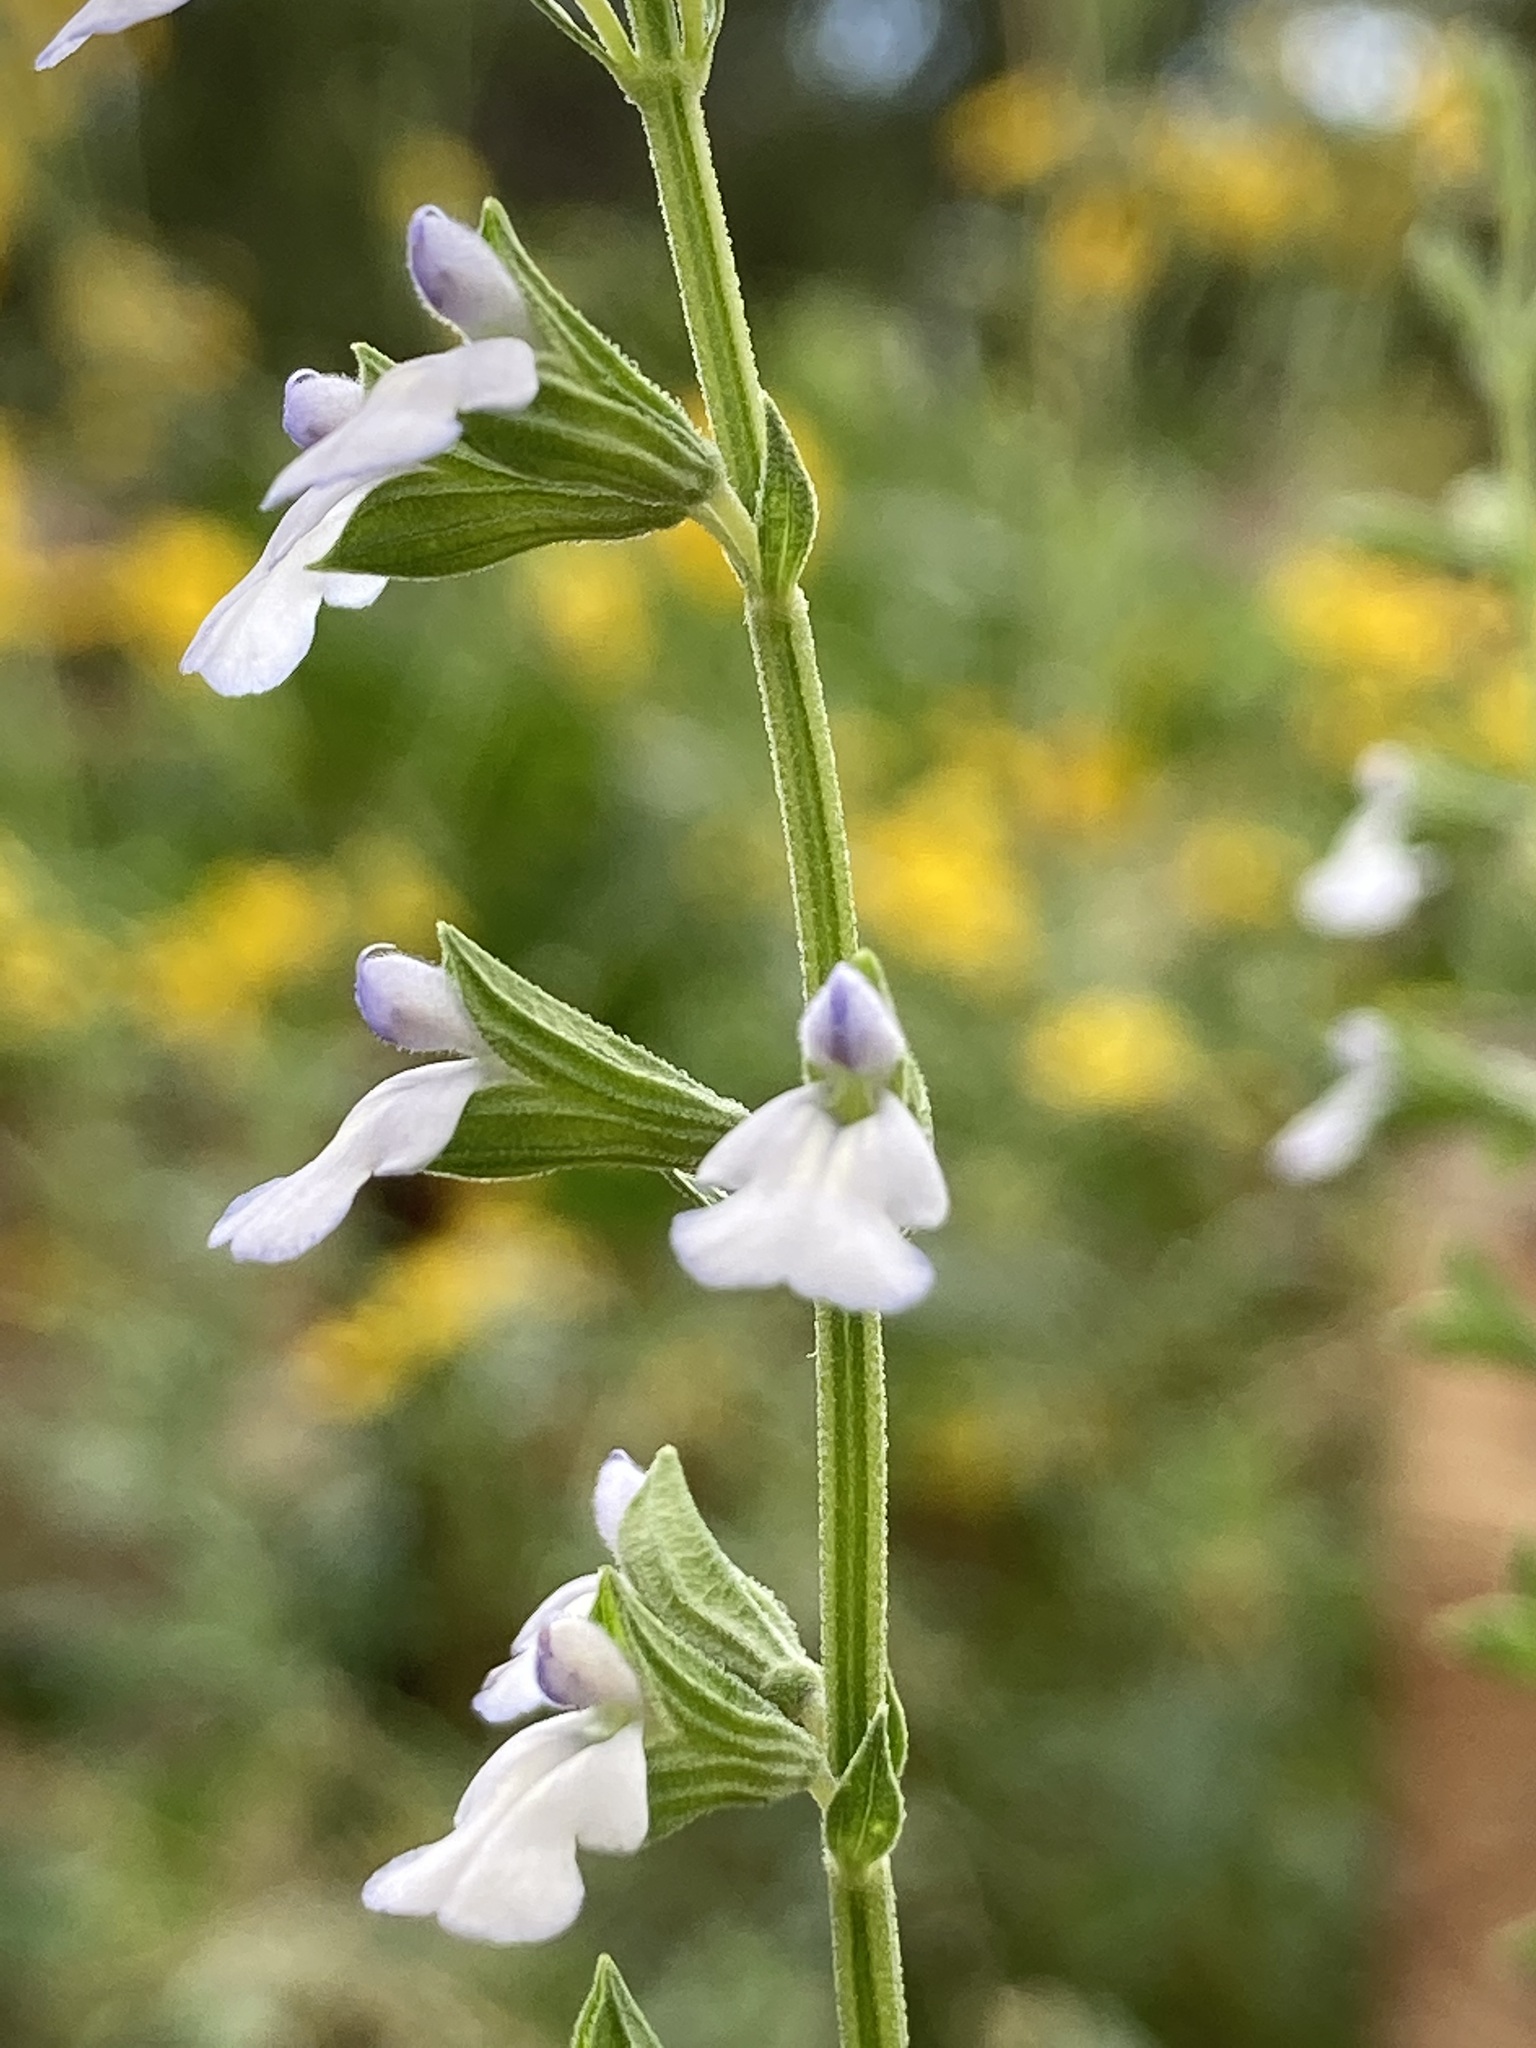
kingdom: Plantae
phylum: Tracheophyta
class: Magnoliopsida
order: Lamiales
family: Lamiaceae
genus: Salvia
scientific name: Salvia reflexa
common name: Mintweed
